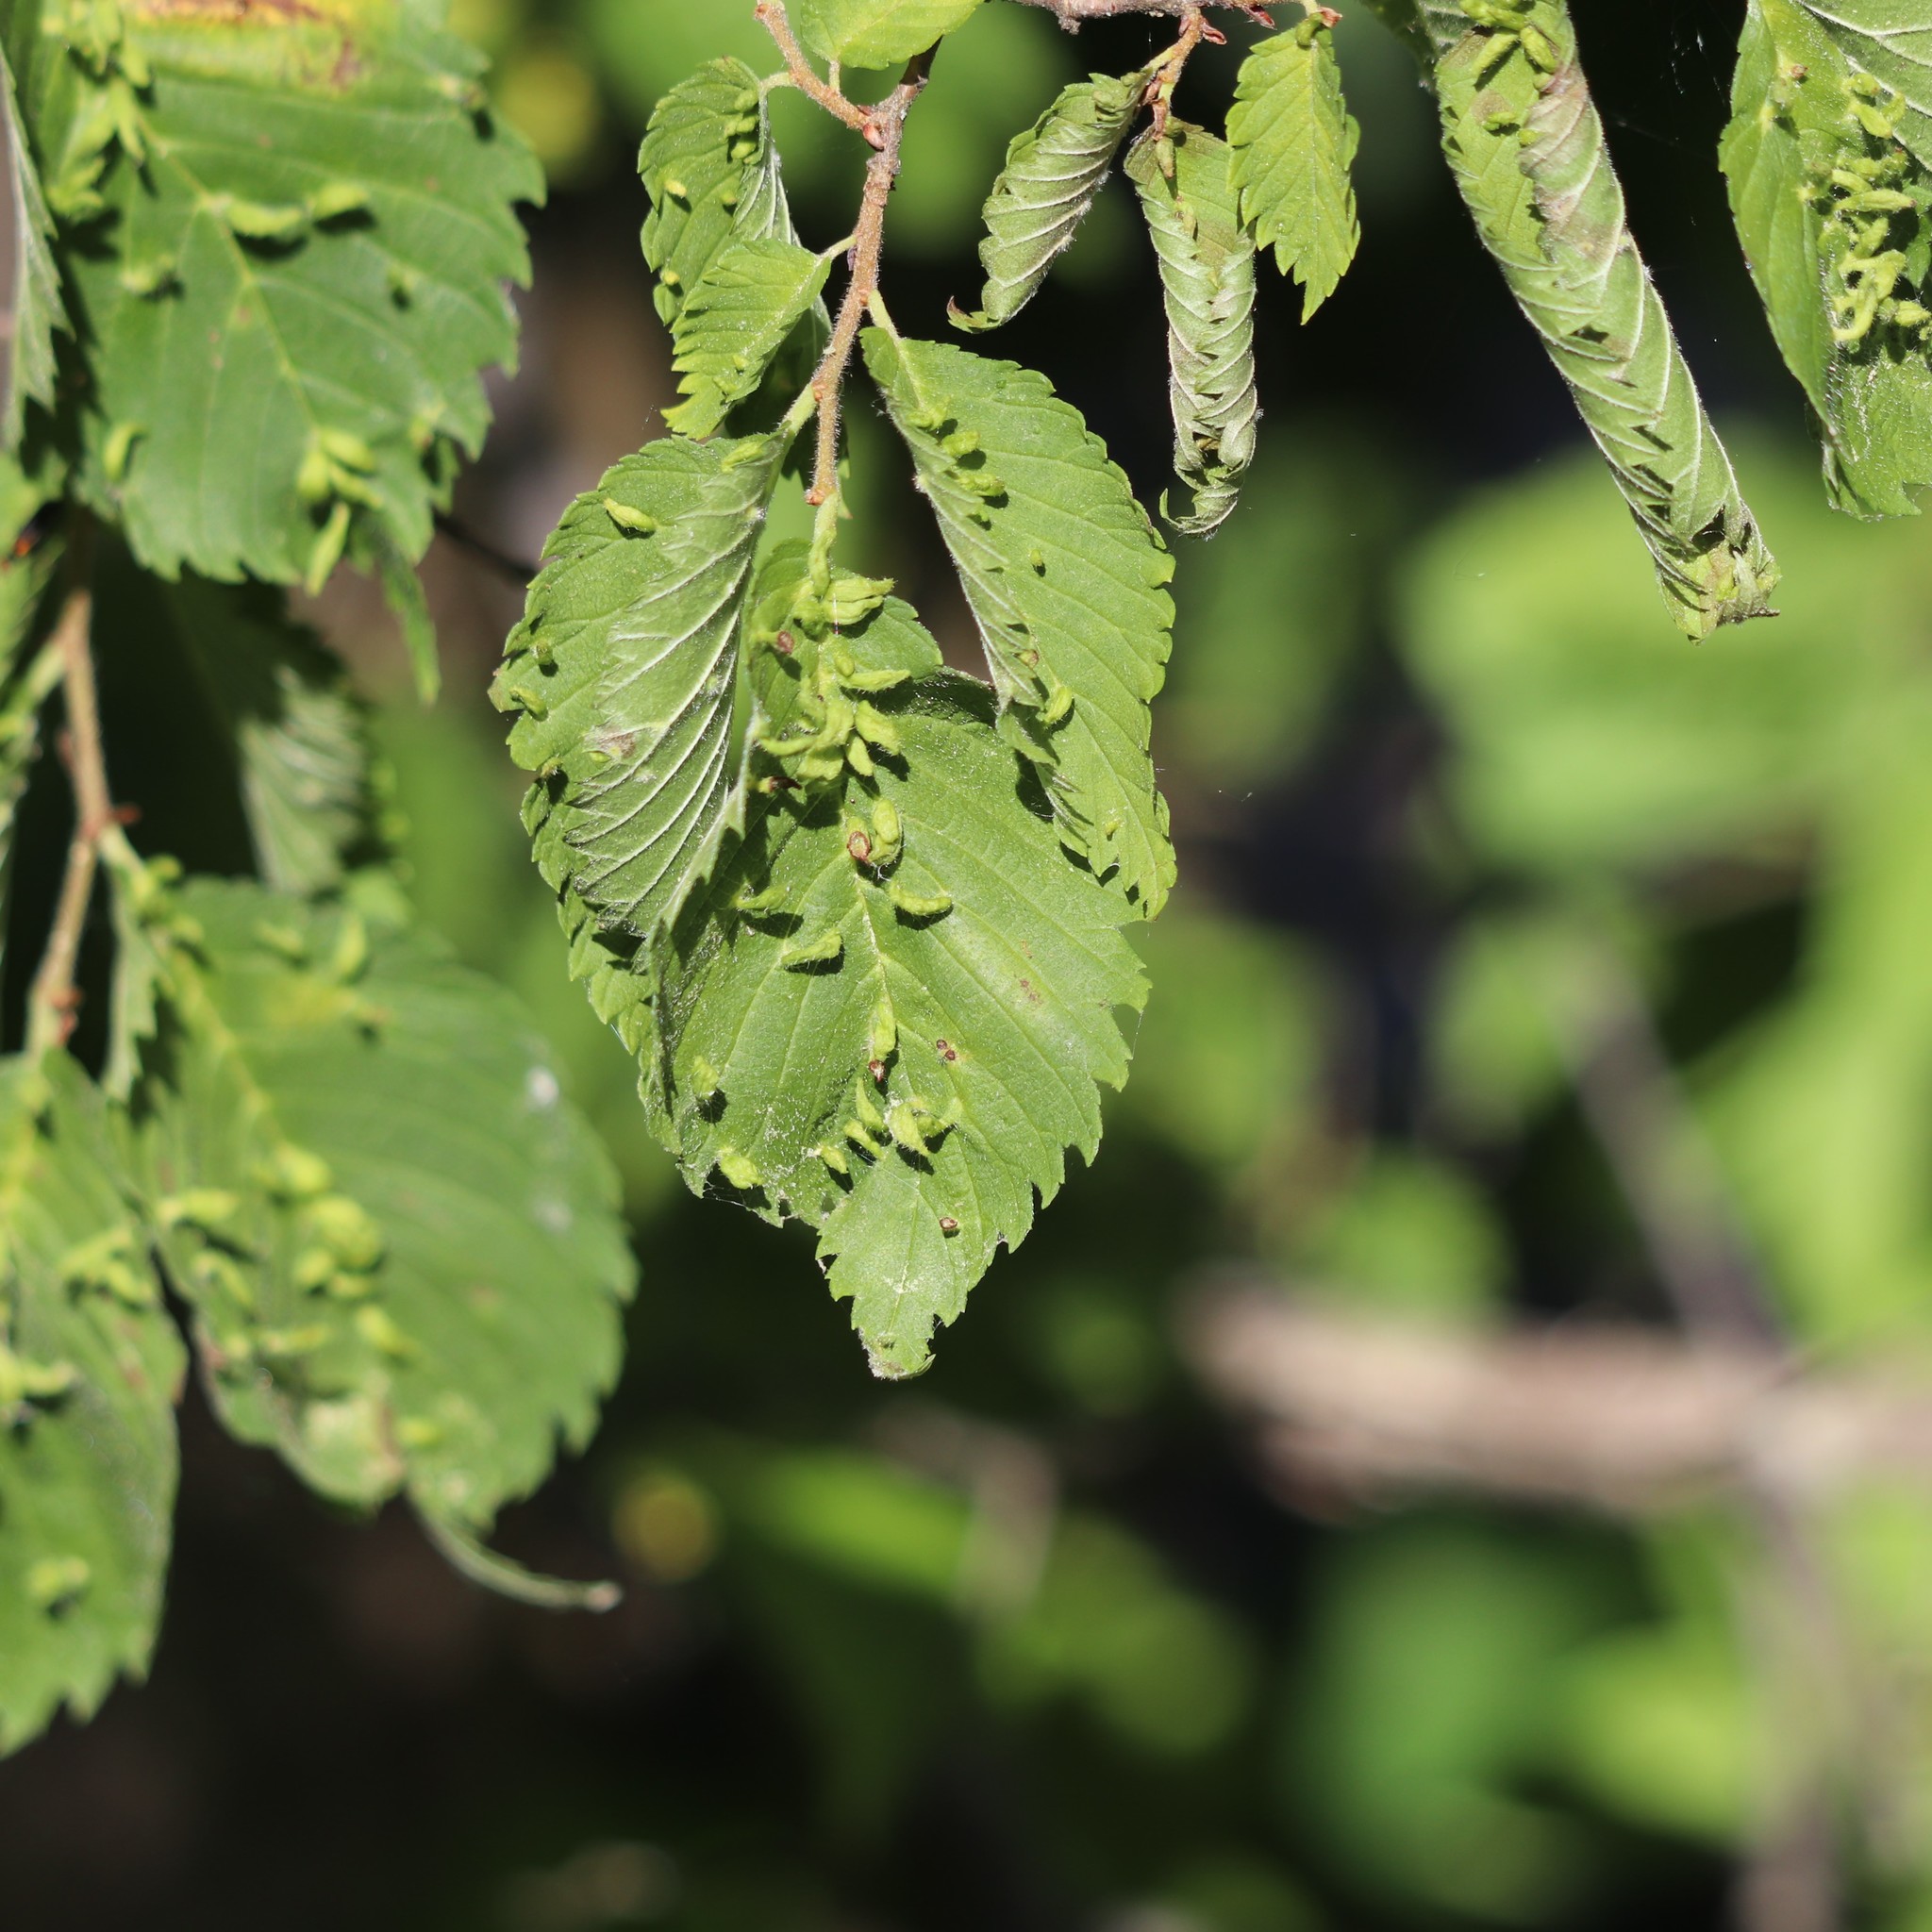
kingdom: Animalia
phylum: Arthropoda
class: Arachnida
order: Trombidiformes
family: Eriophyidae
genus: Aceria
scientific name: Aceria
